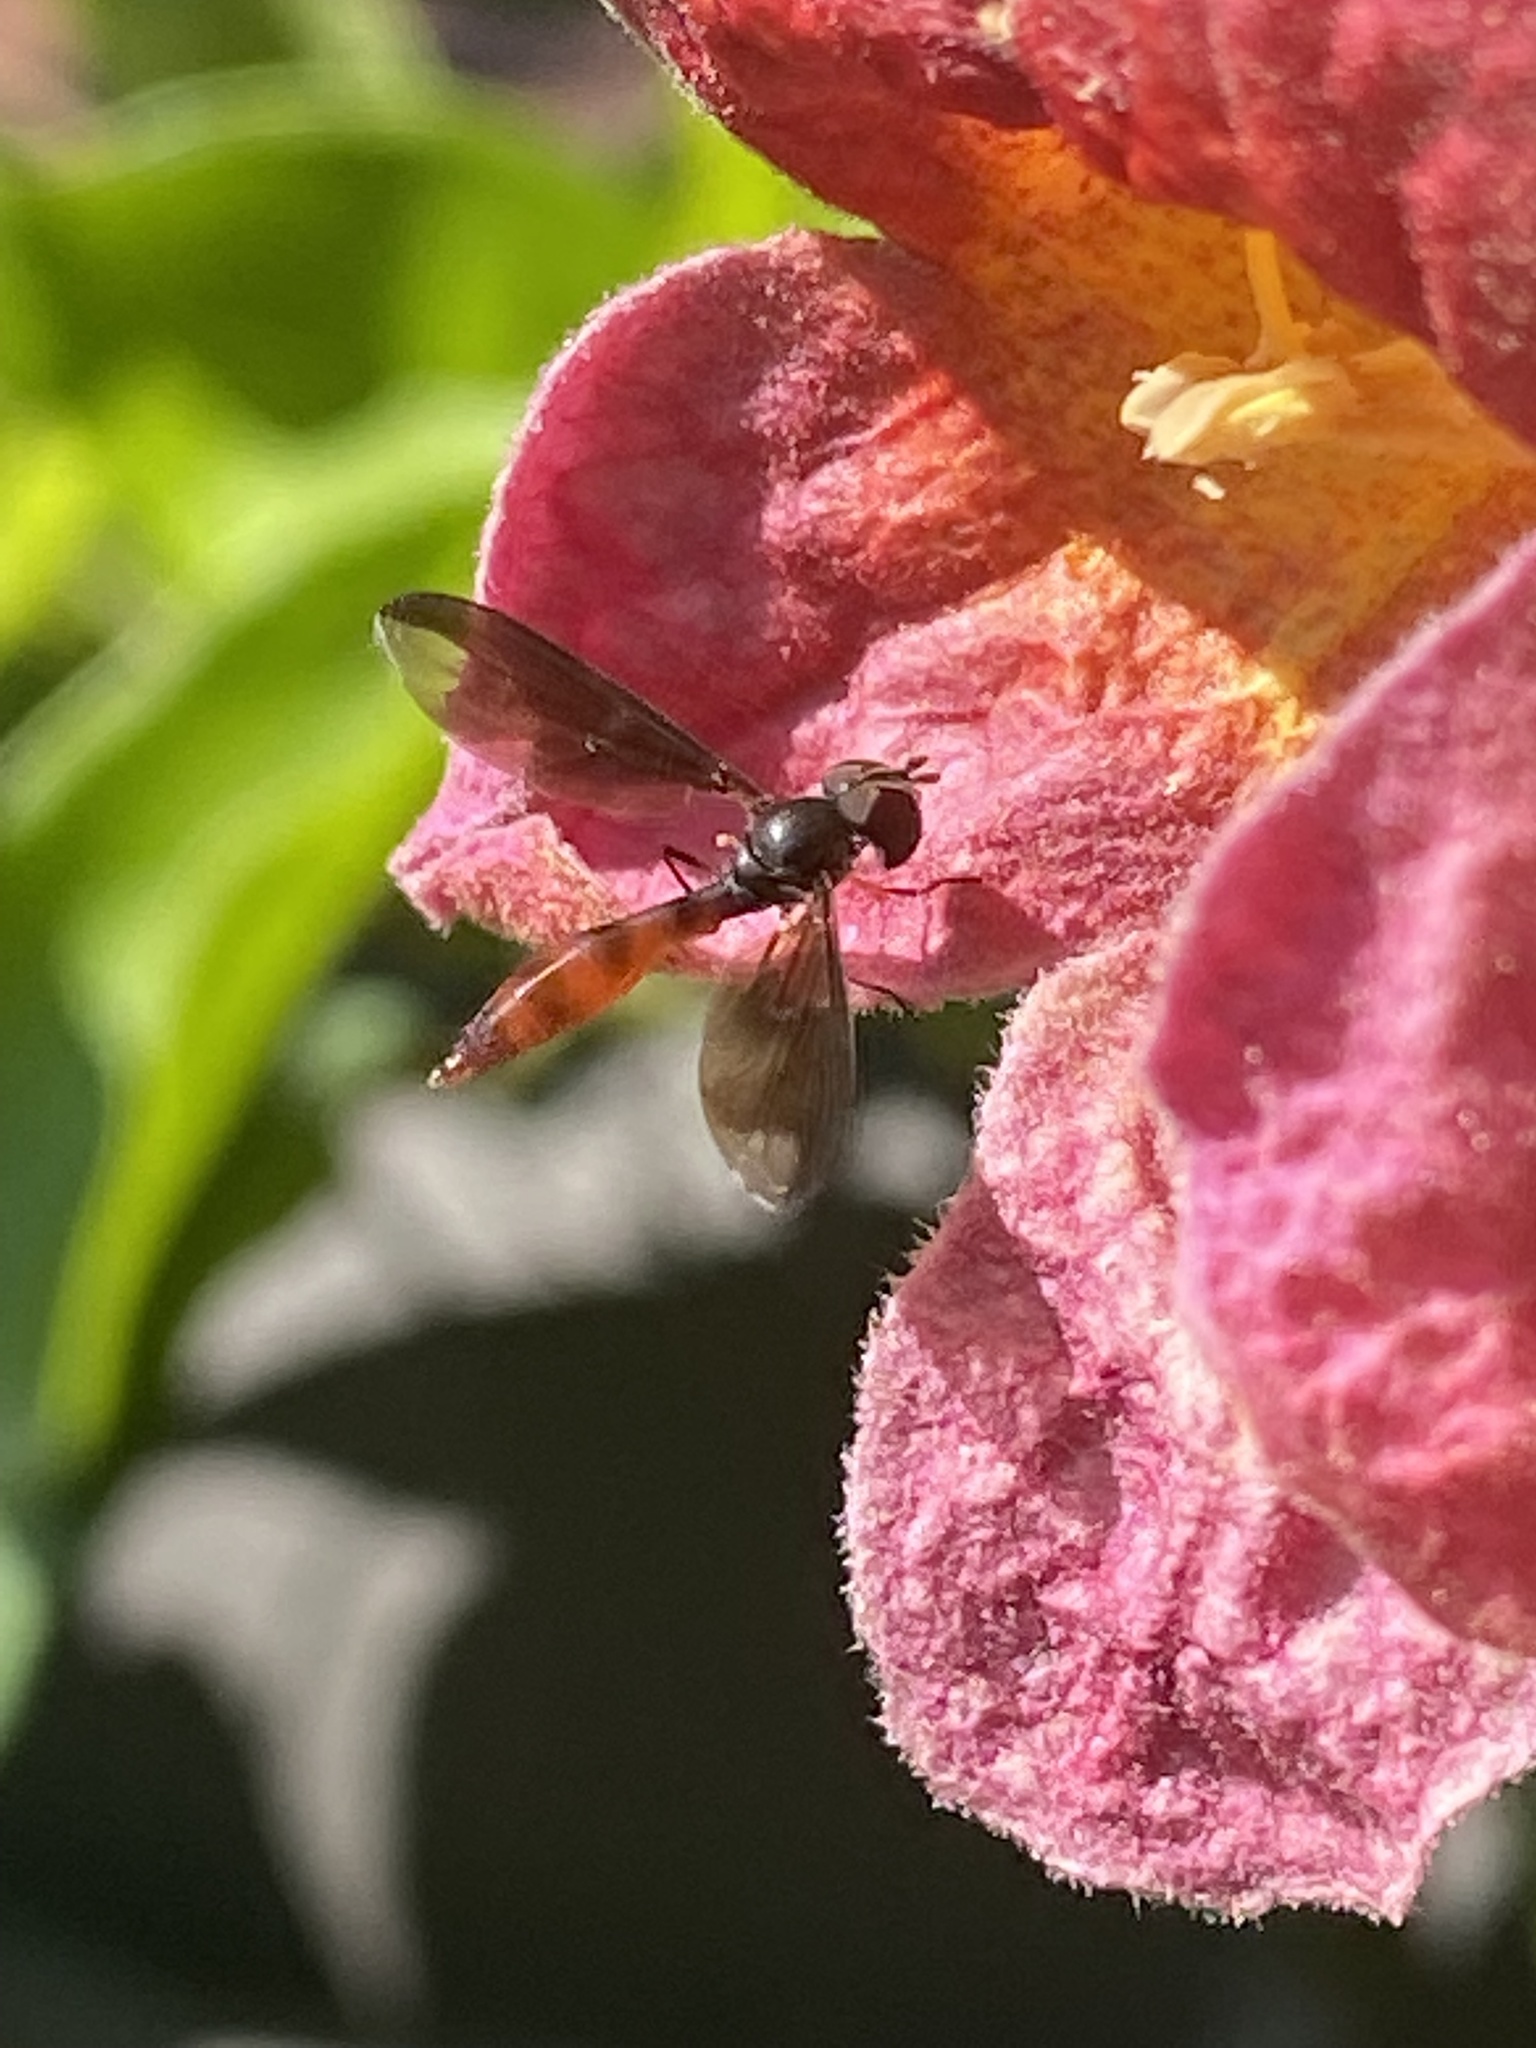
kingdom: Animalia
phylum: Arthropoda
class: Insecta
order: Diptera
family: Syrphidae
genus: Ocyptamus
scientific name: Ocyptamus fuscipennis
